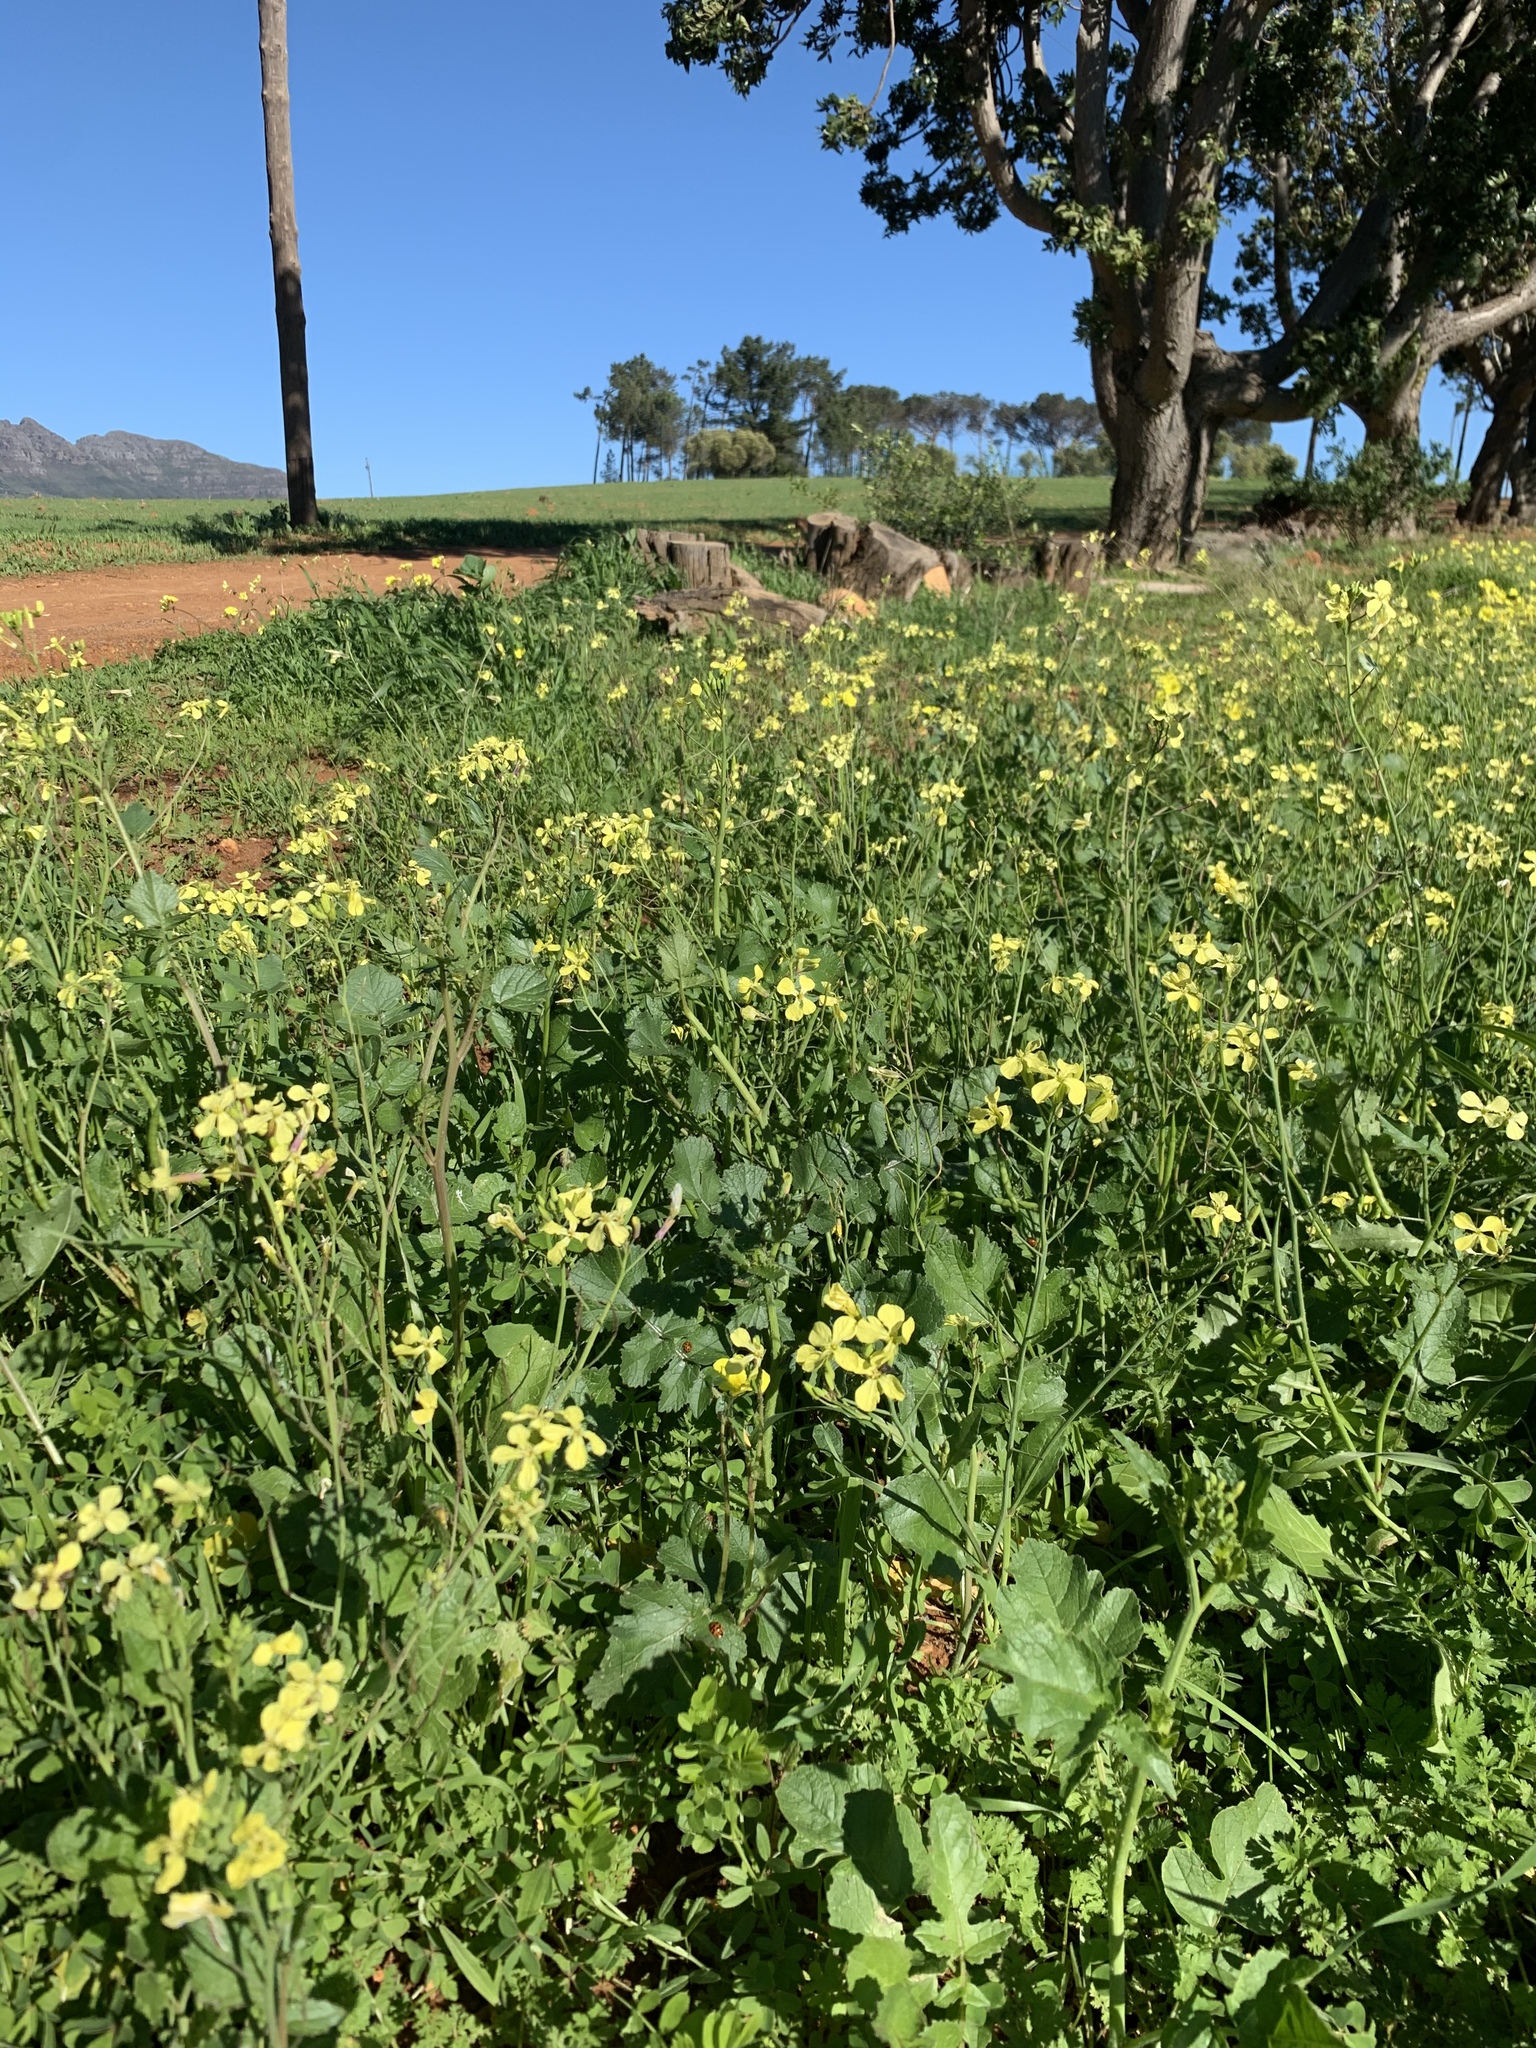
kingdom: Plantae
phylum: Tracheophyta
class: Magnoliopsida
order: Brassicales
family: Brassicaceae
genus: Raphanus
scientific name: Raphanus raphanistrum
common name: Wild radish
